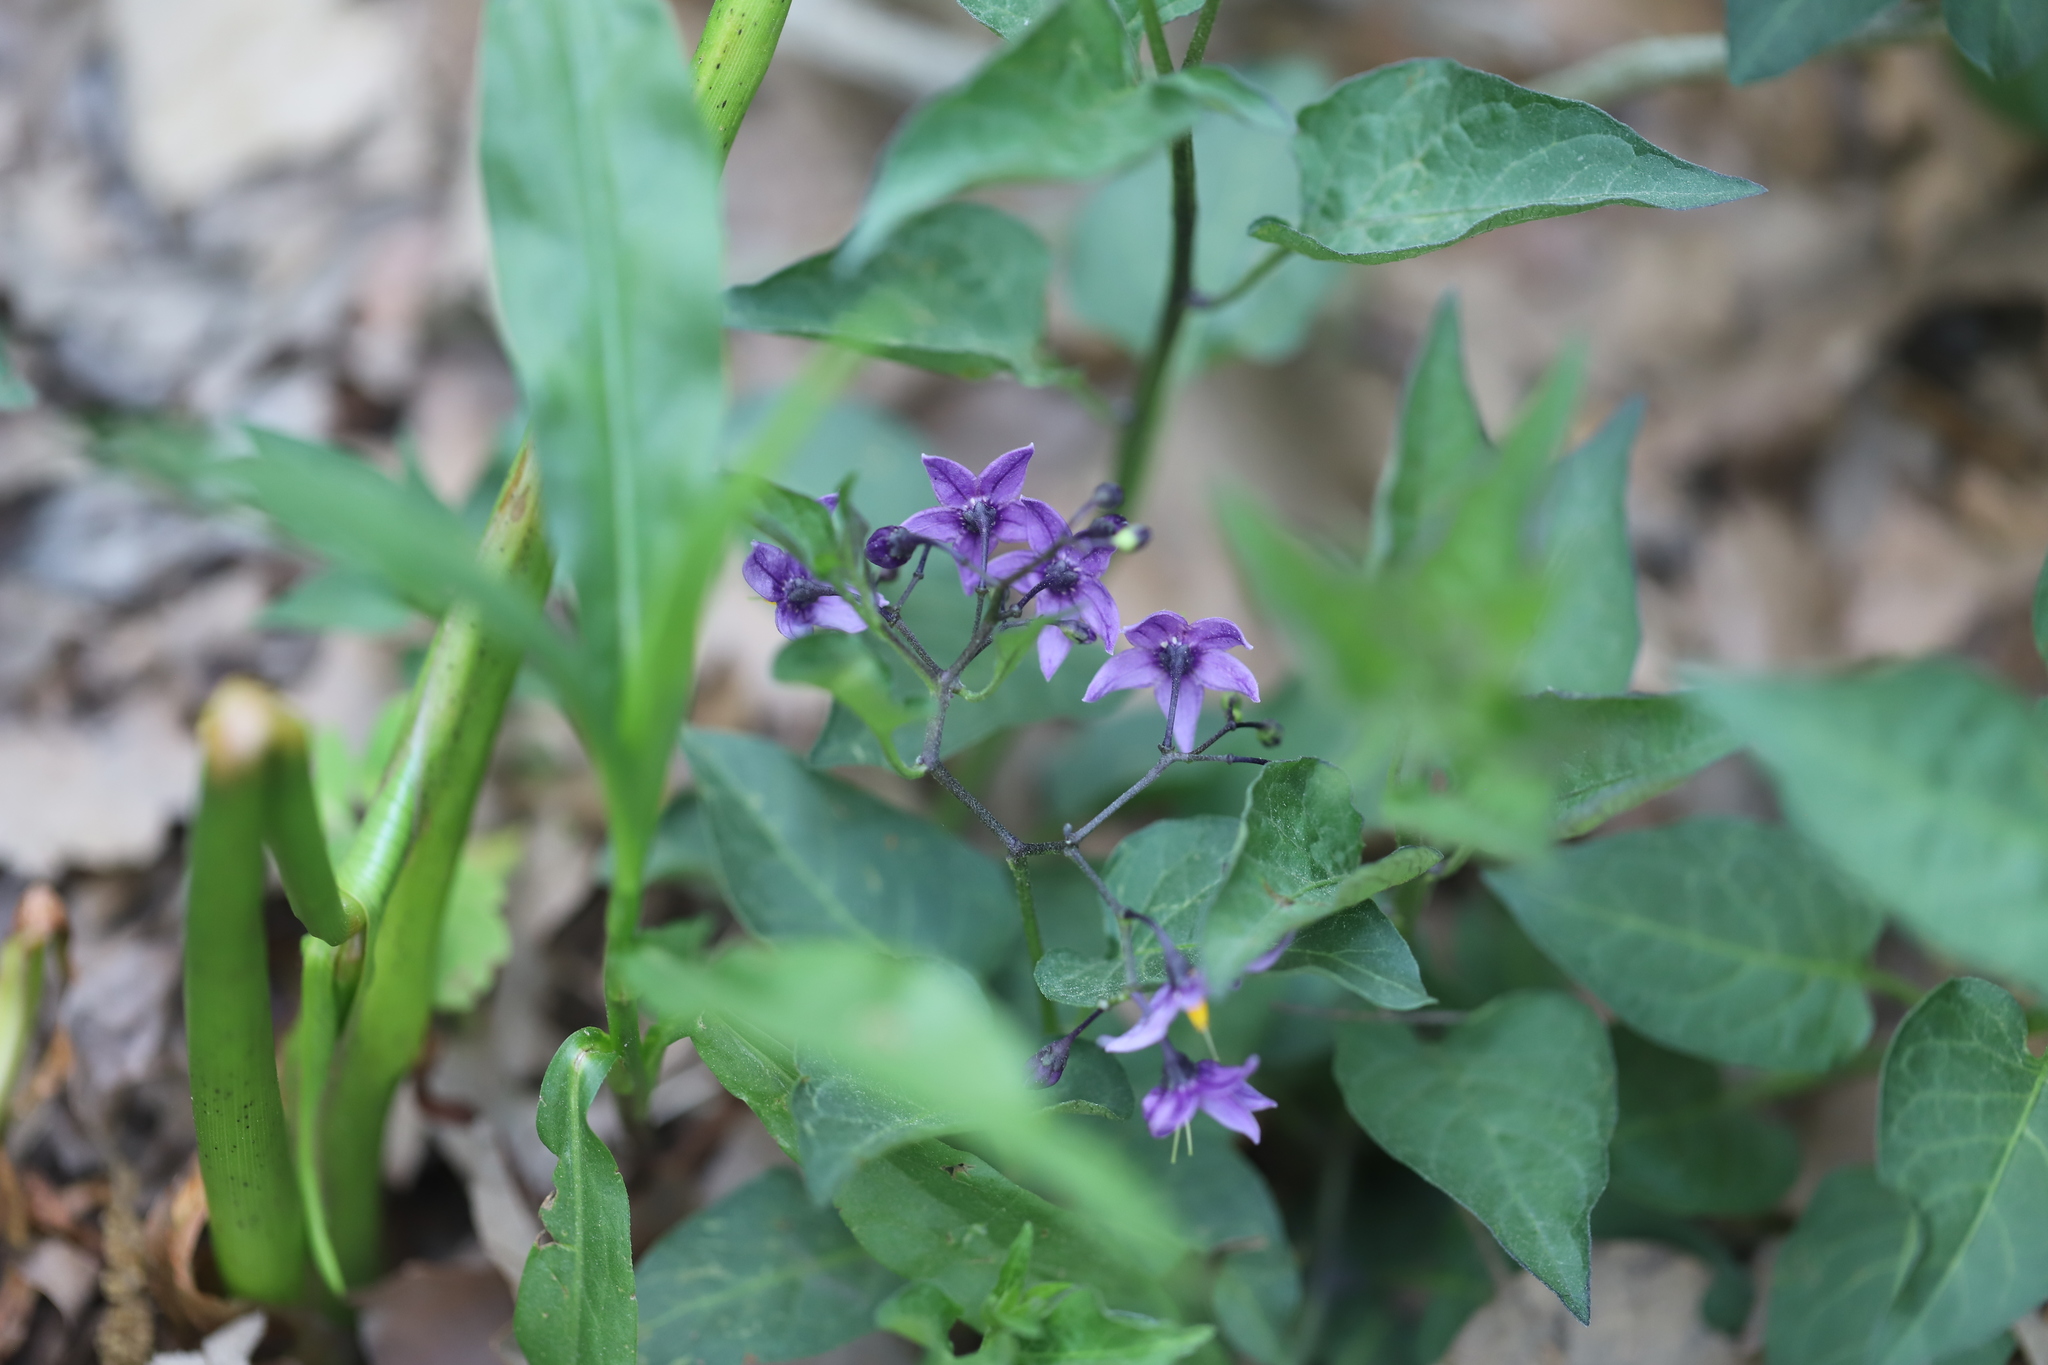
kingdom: Plantae
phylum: Tracheophyta
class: Magnoliopsida
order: Solanales
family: Solanaceae
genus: Solanum
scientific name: Solanum dulcamara
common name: Climbing nightshade
